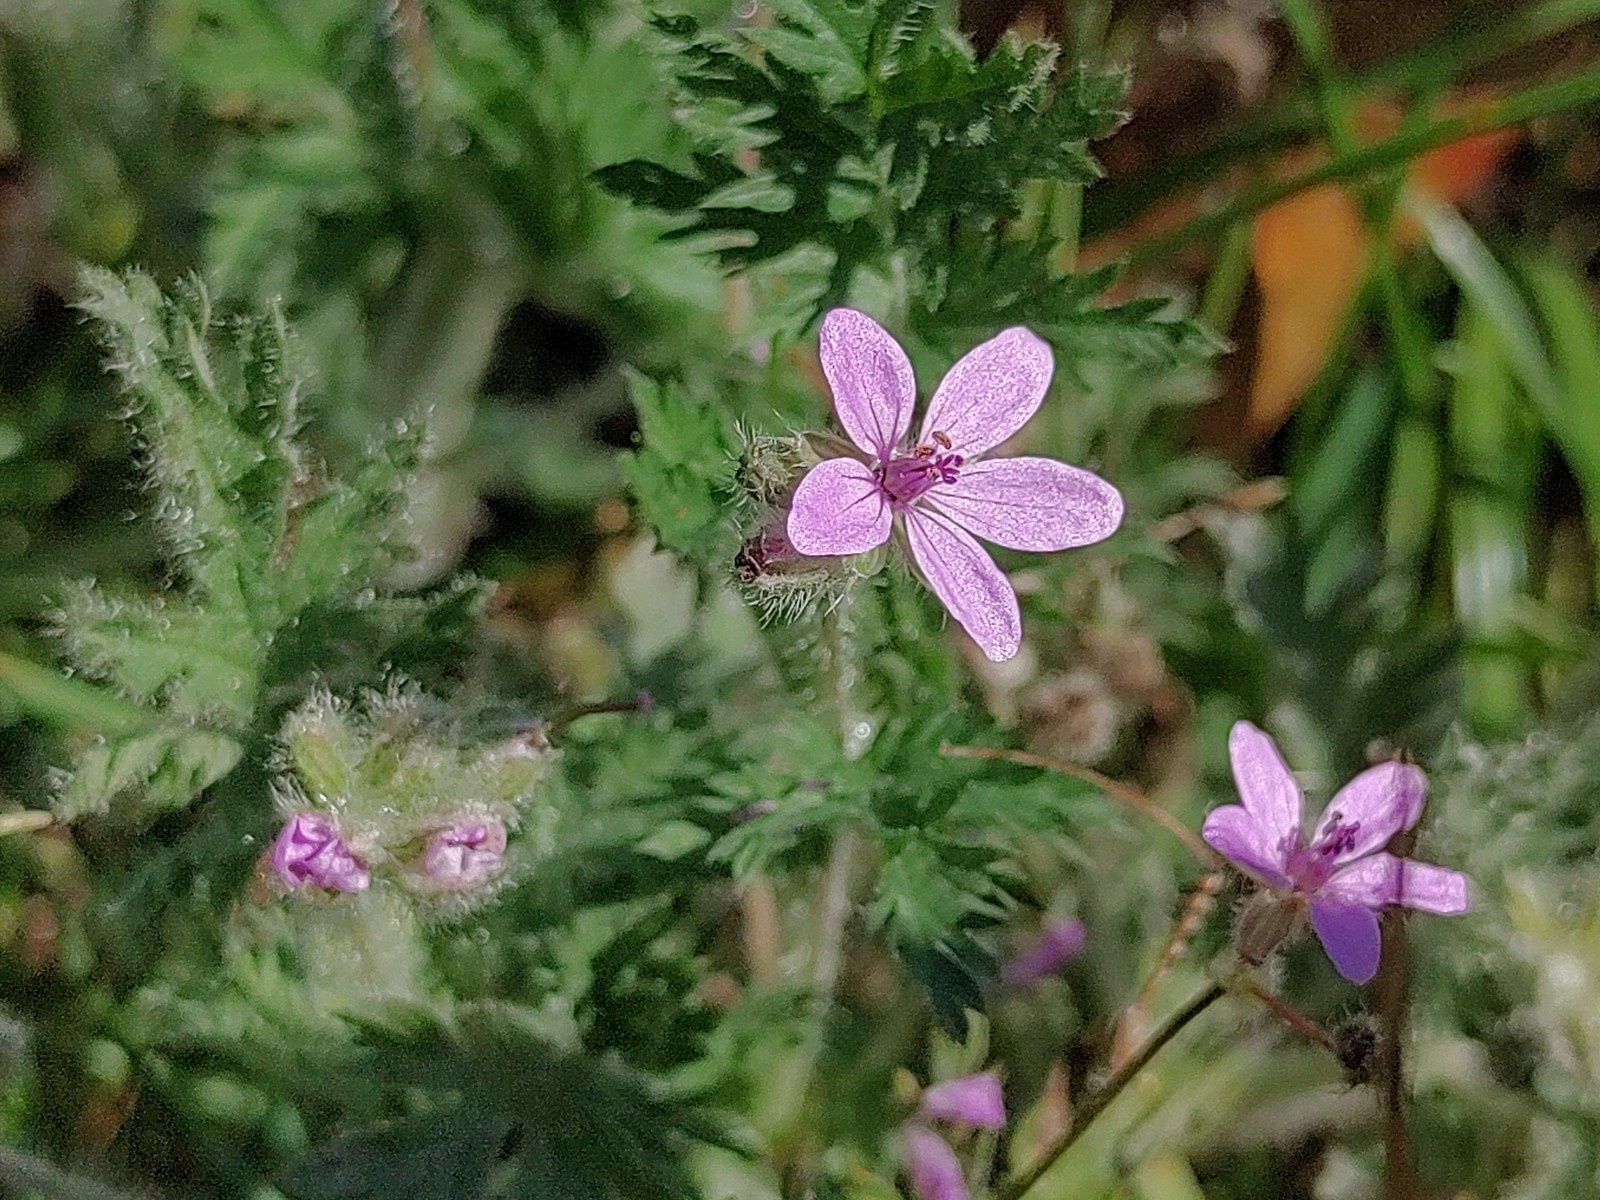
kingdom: Plantae
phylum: Tracheophyta
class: Magnoliopsida
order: Geraniales
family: Geraniaceae
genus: Erodium
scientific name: Erodium cicutarium
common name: Common stork's-bill
